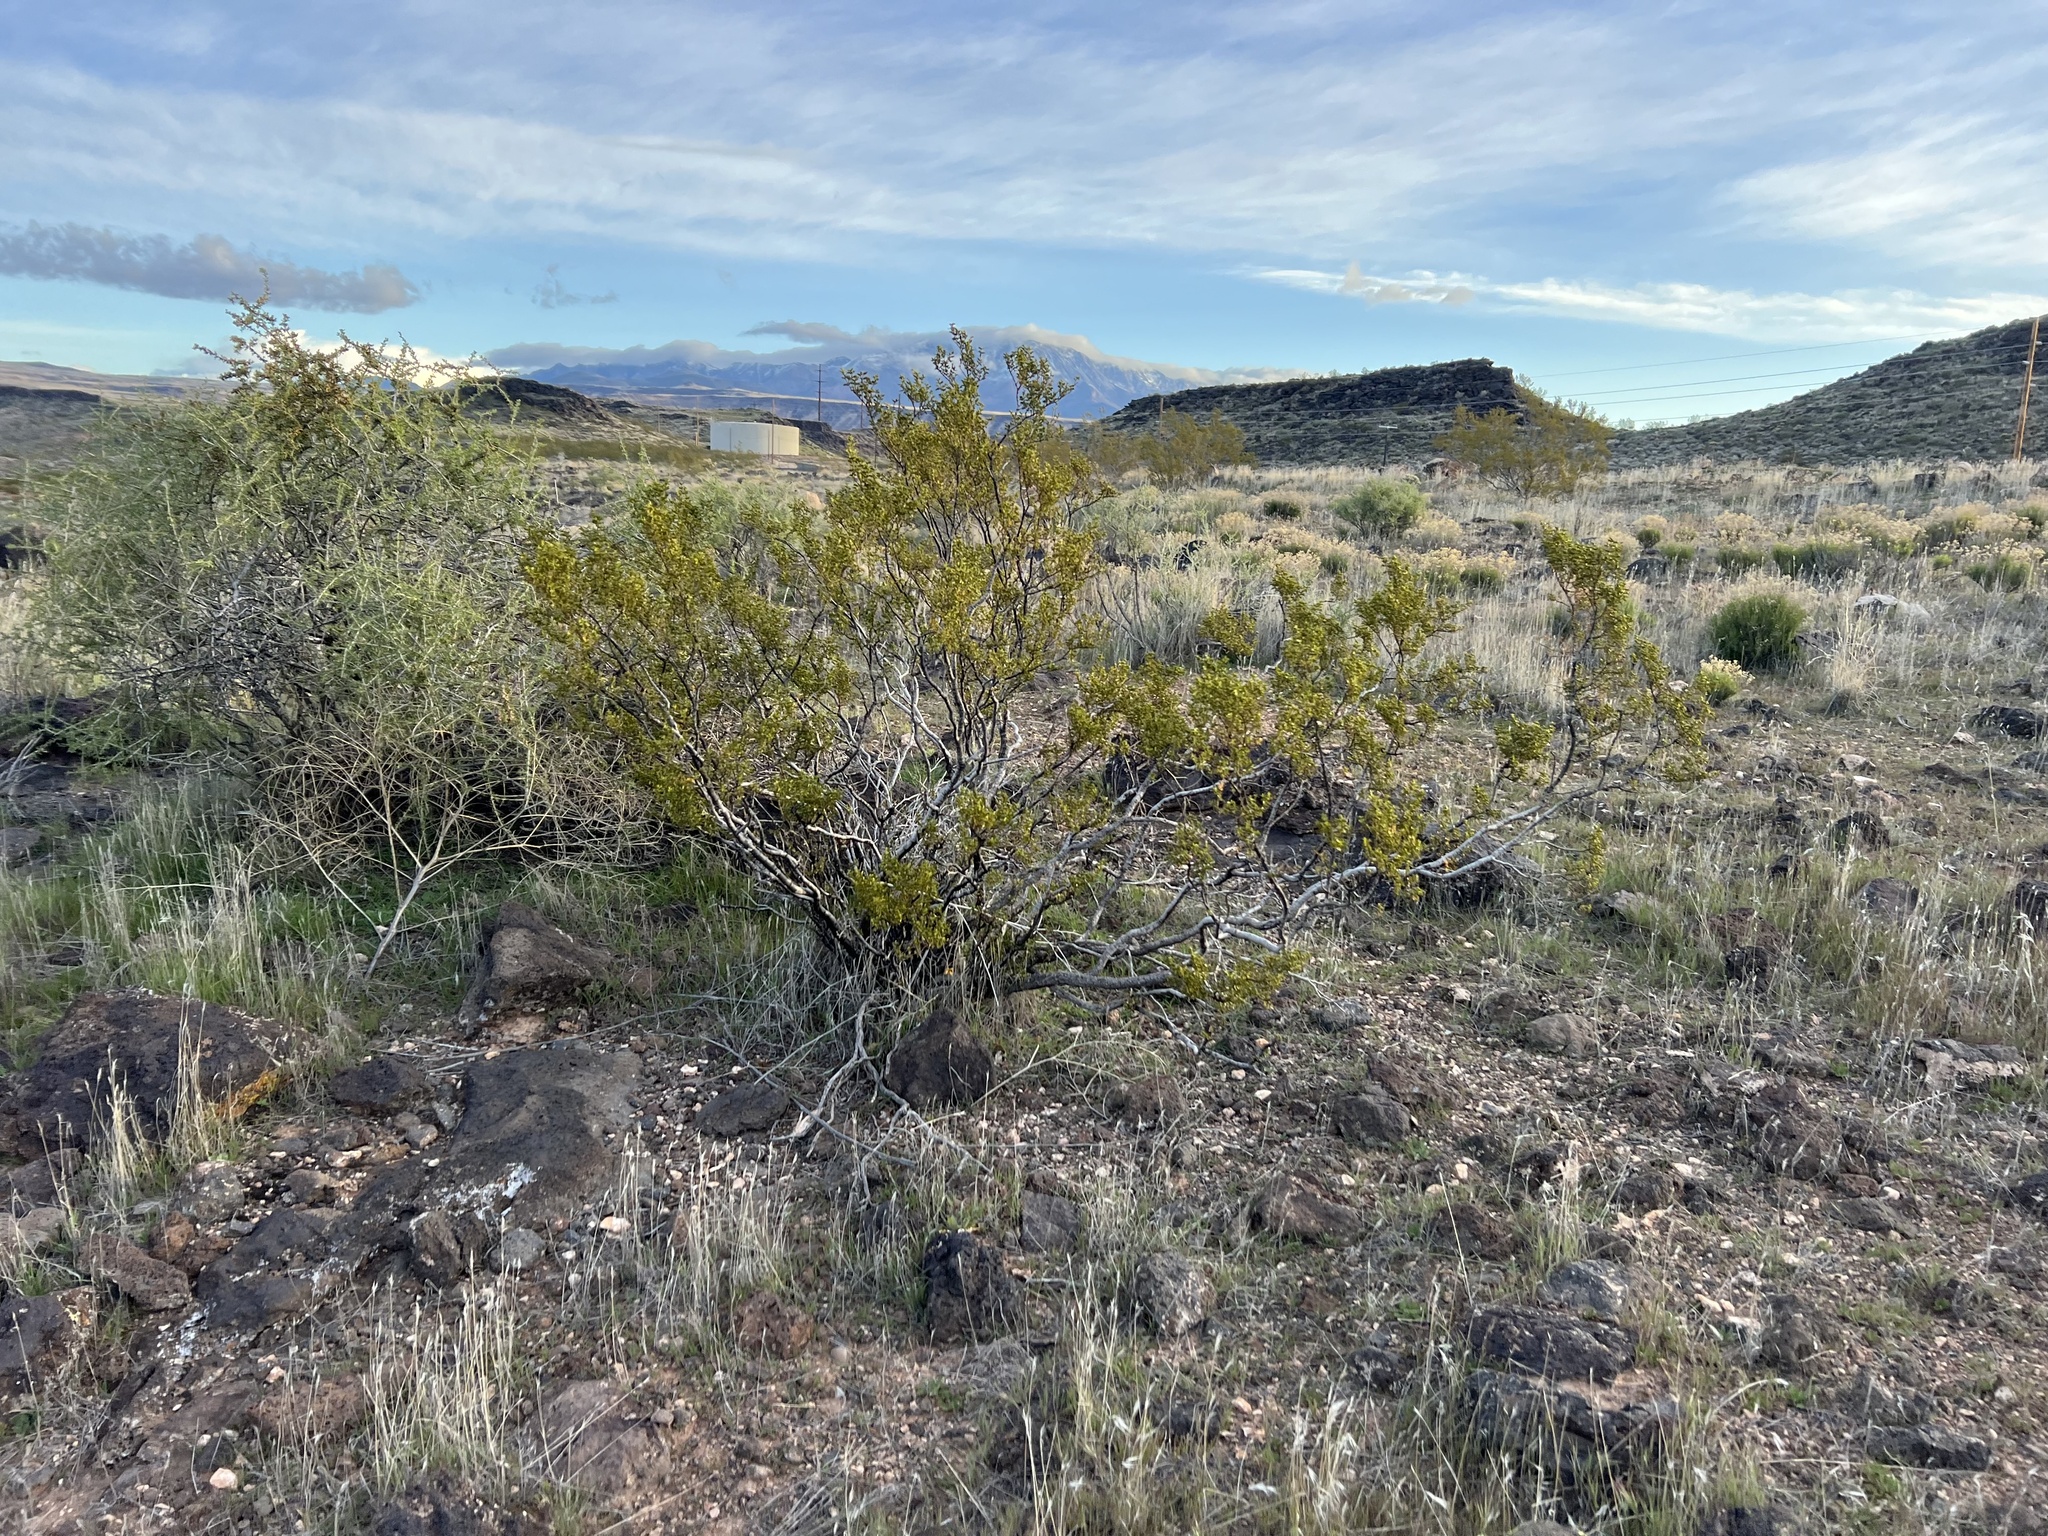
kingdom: Plantae
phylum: Tracheophyta
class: Magnoliopsida
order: Zygophyllales
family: Zygophyllaceae
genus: Larrea
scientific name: Larrea tridentata
